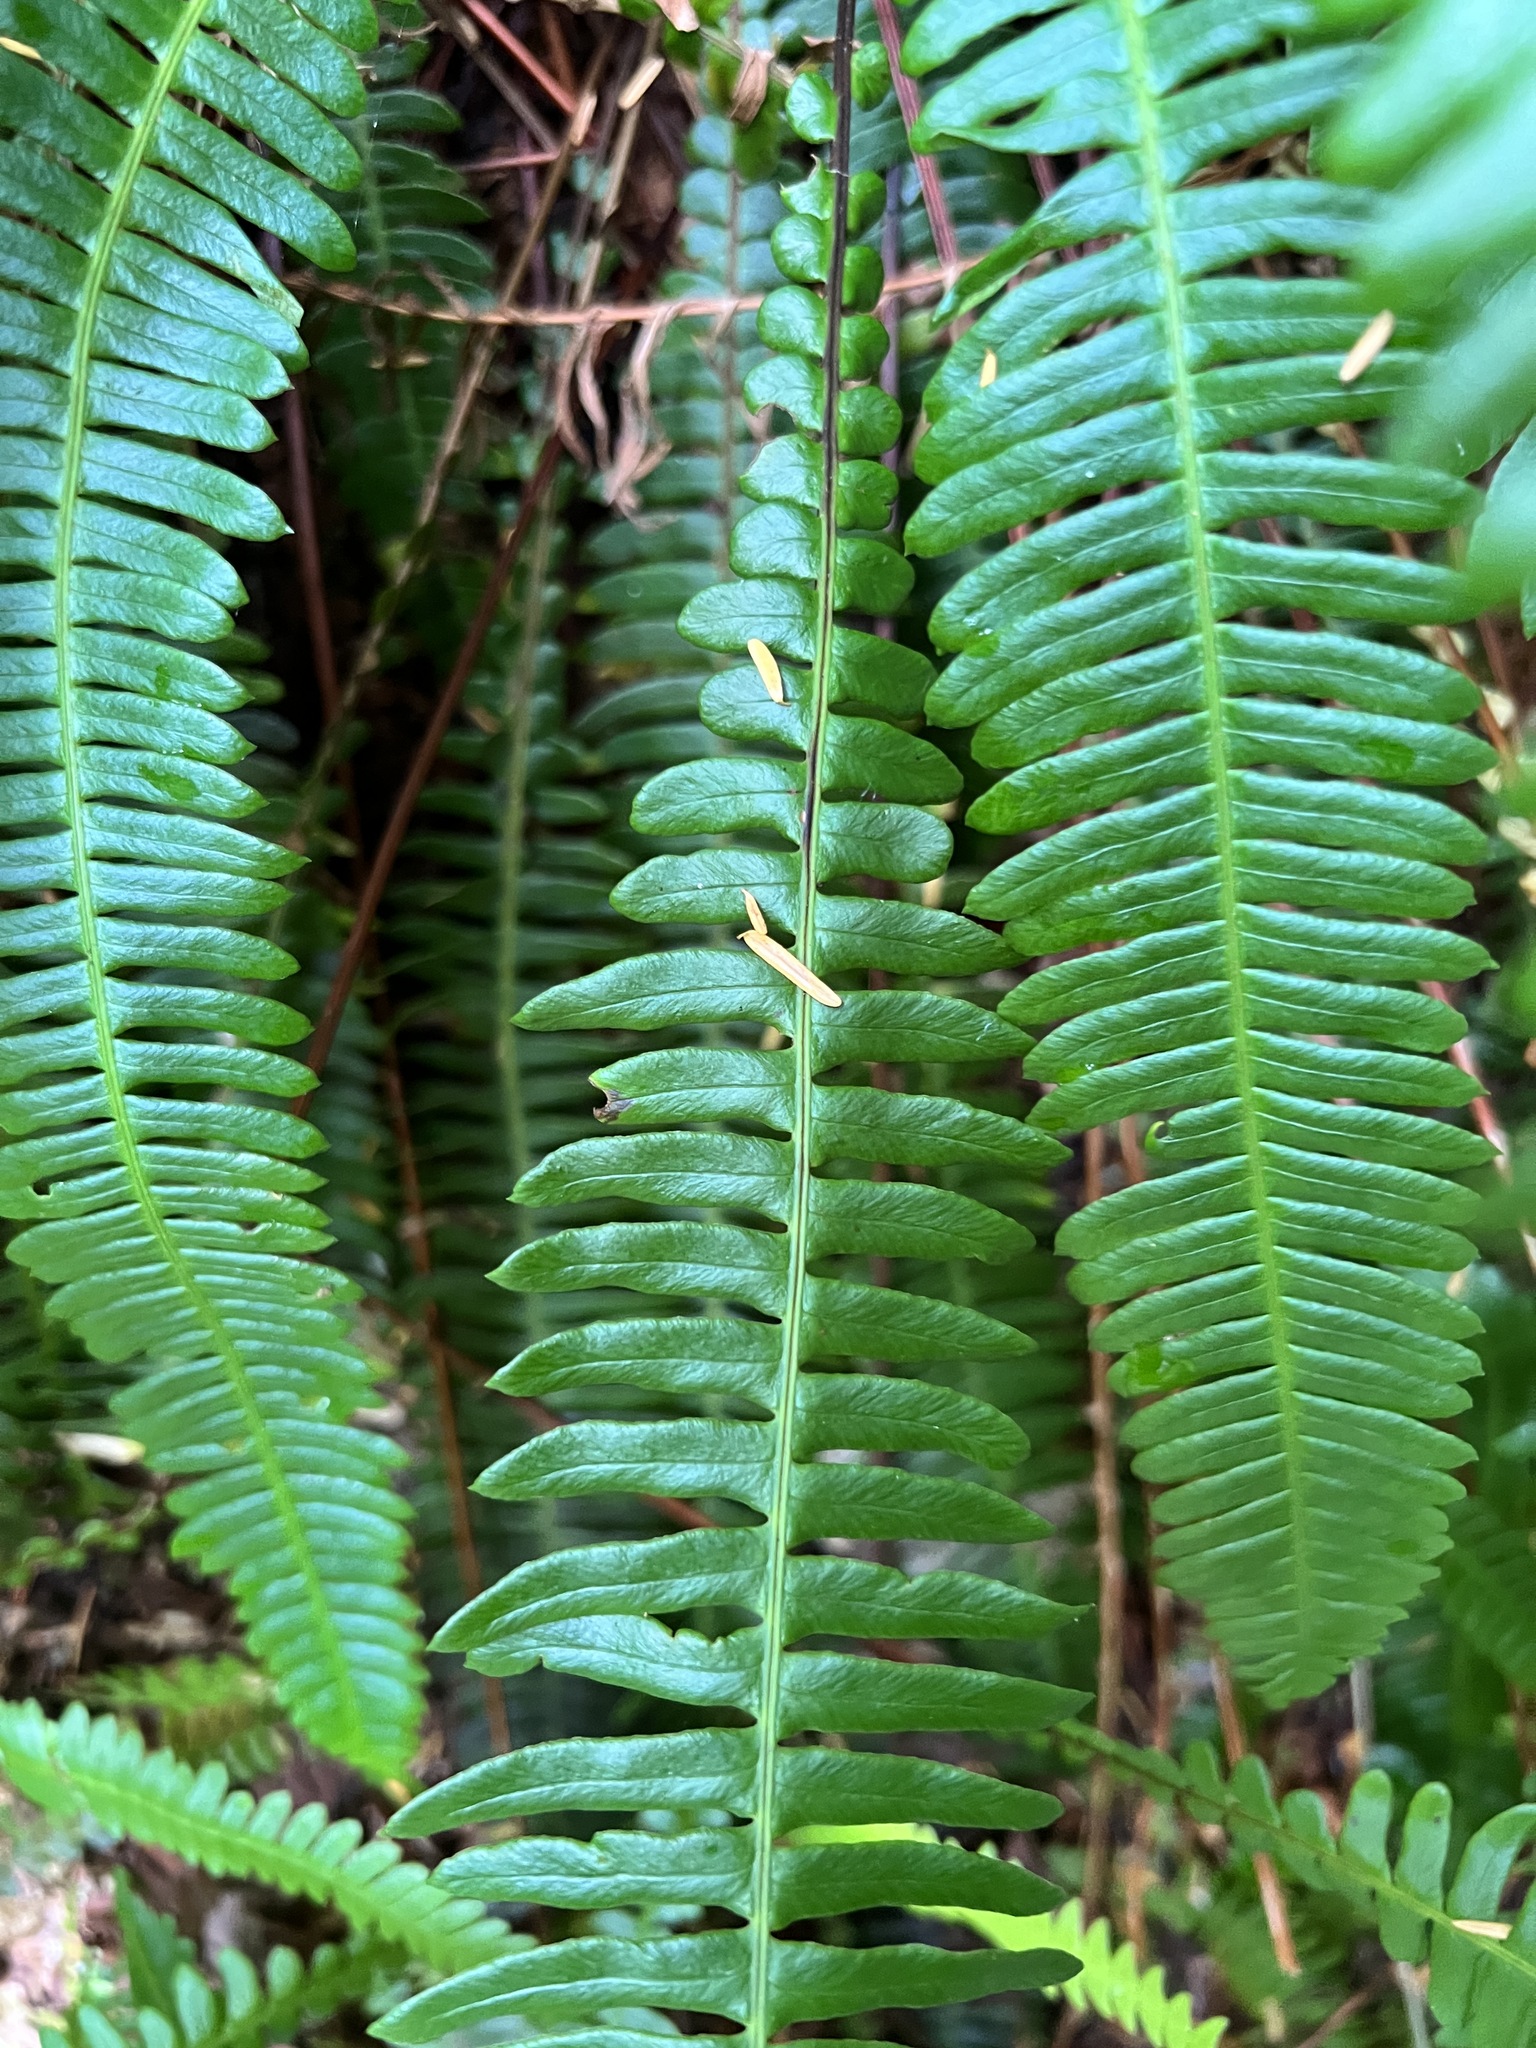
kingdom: Plantae
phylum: Tracheophyta
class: Polypodiopsida
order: Polypodiales
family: Blechnaceae
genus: Struthiopteris
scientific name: Struthiopteris spicant
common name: Deer fern
